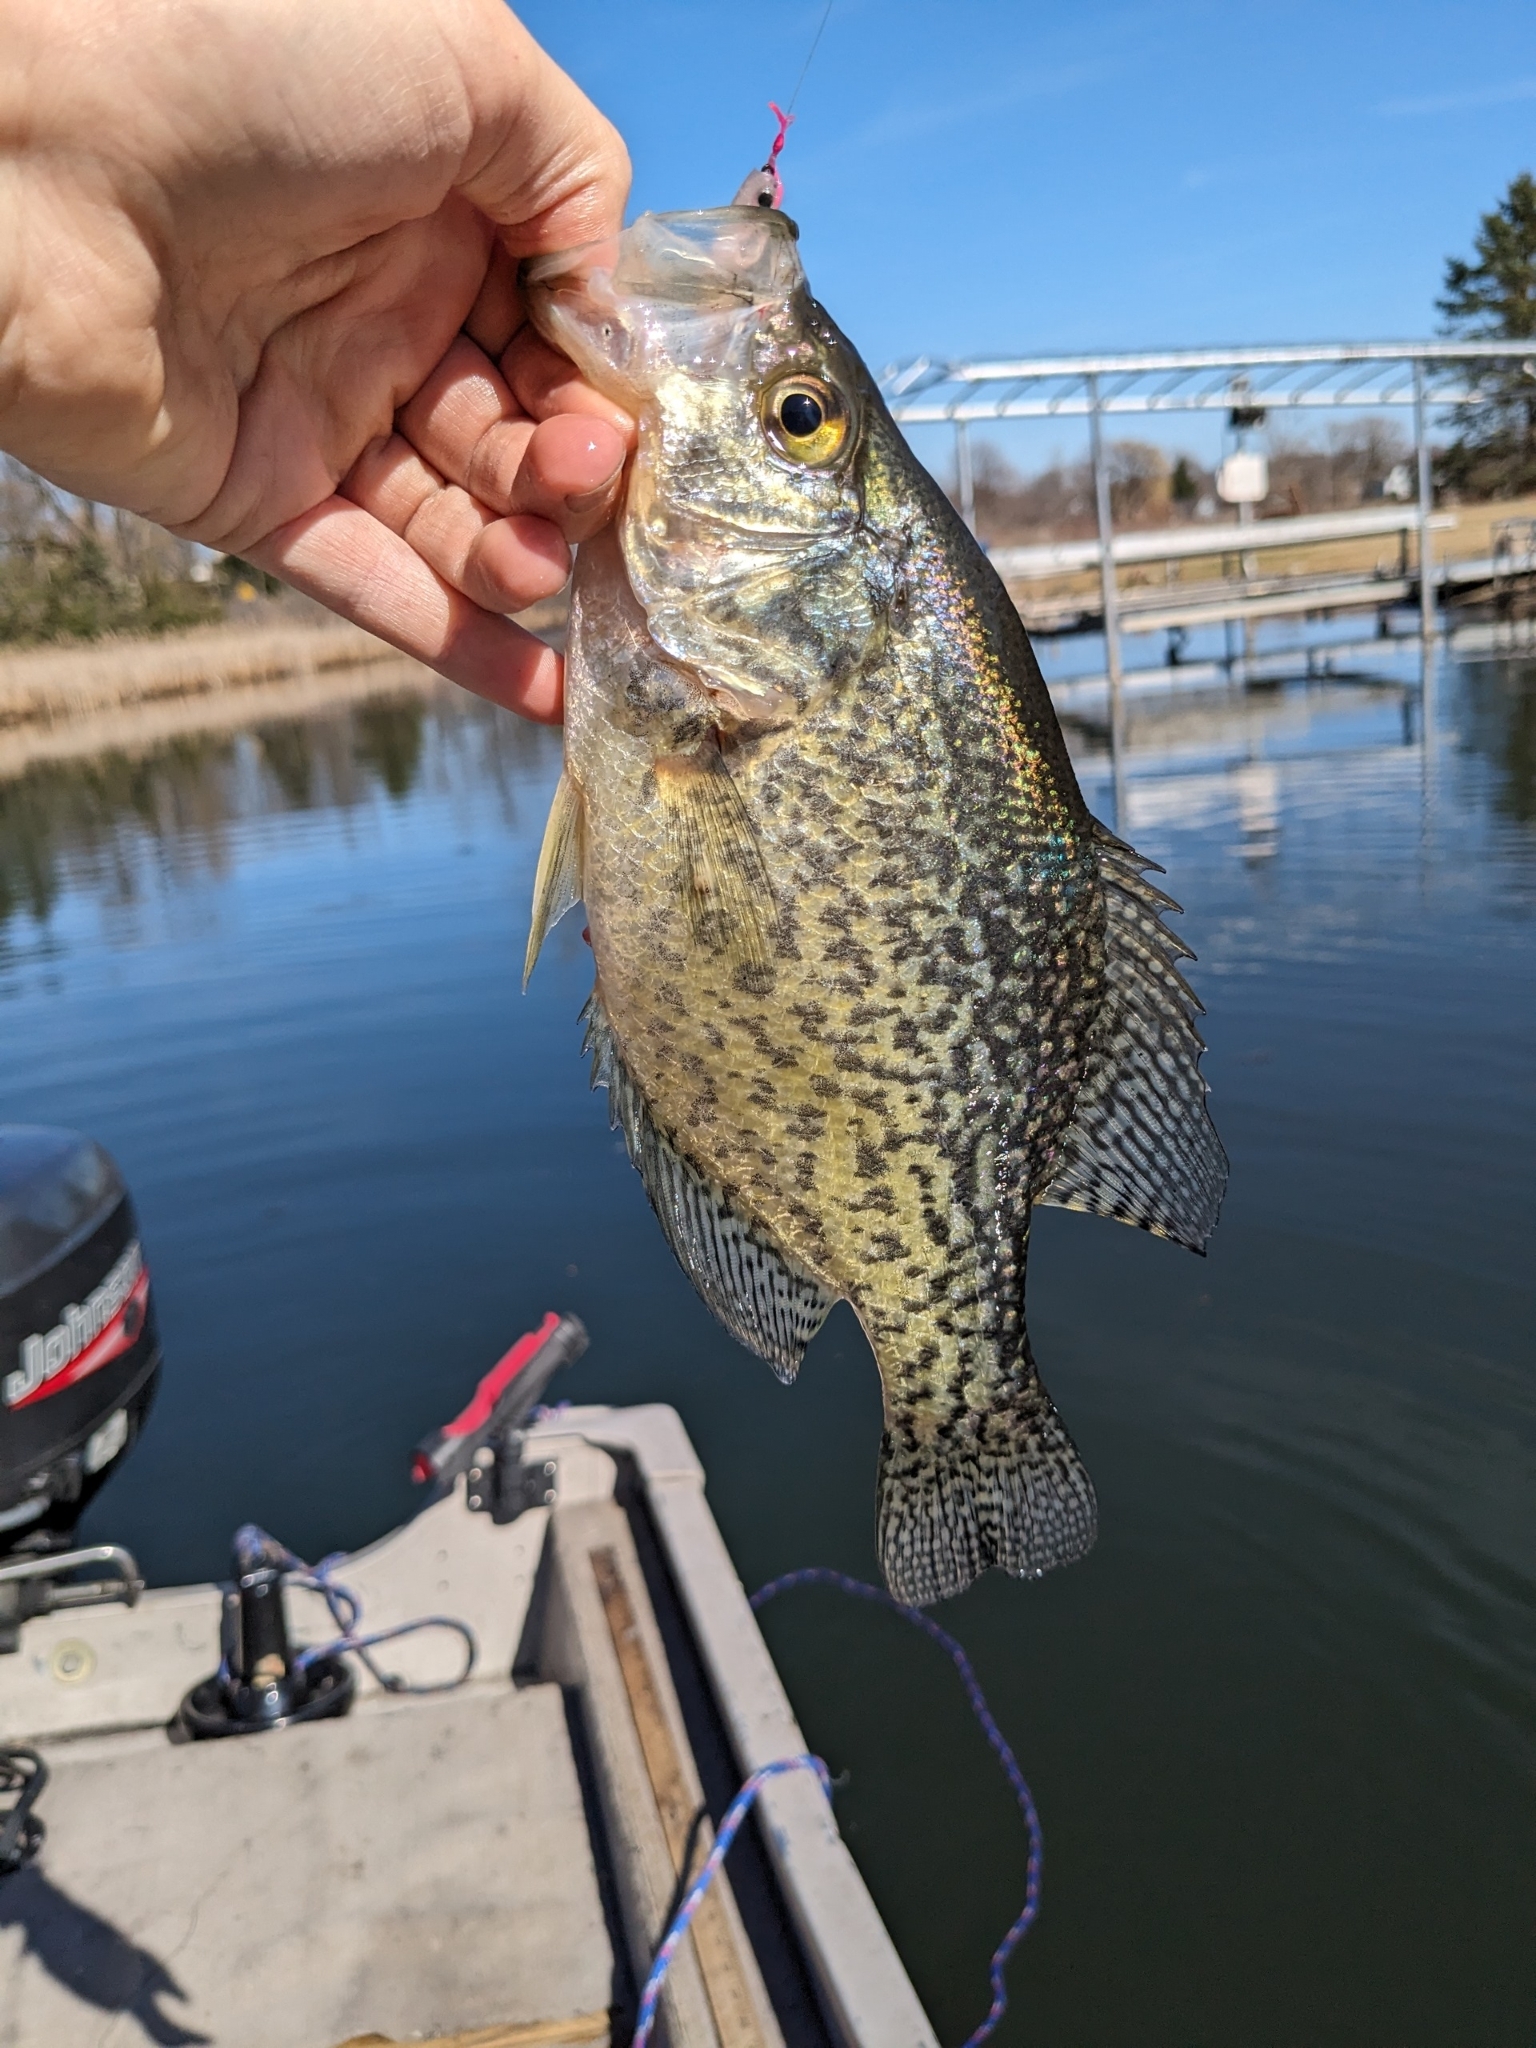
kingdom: Animalia
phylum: Chordata
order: Perciformes
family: Centrarchidae
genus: Pomoxis
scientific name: Pomoxis nigromaculatus
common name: Black crappie
